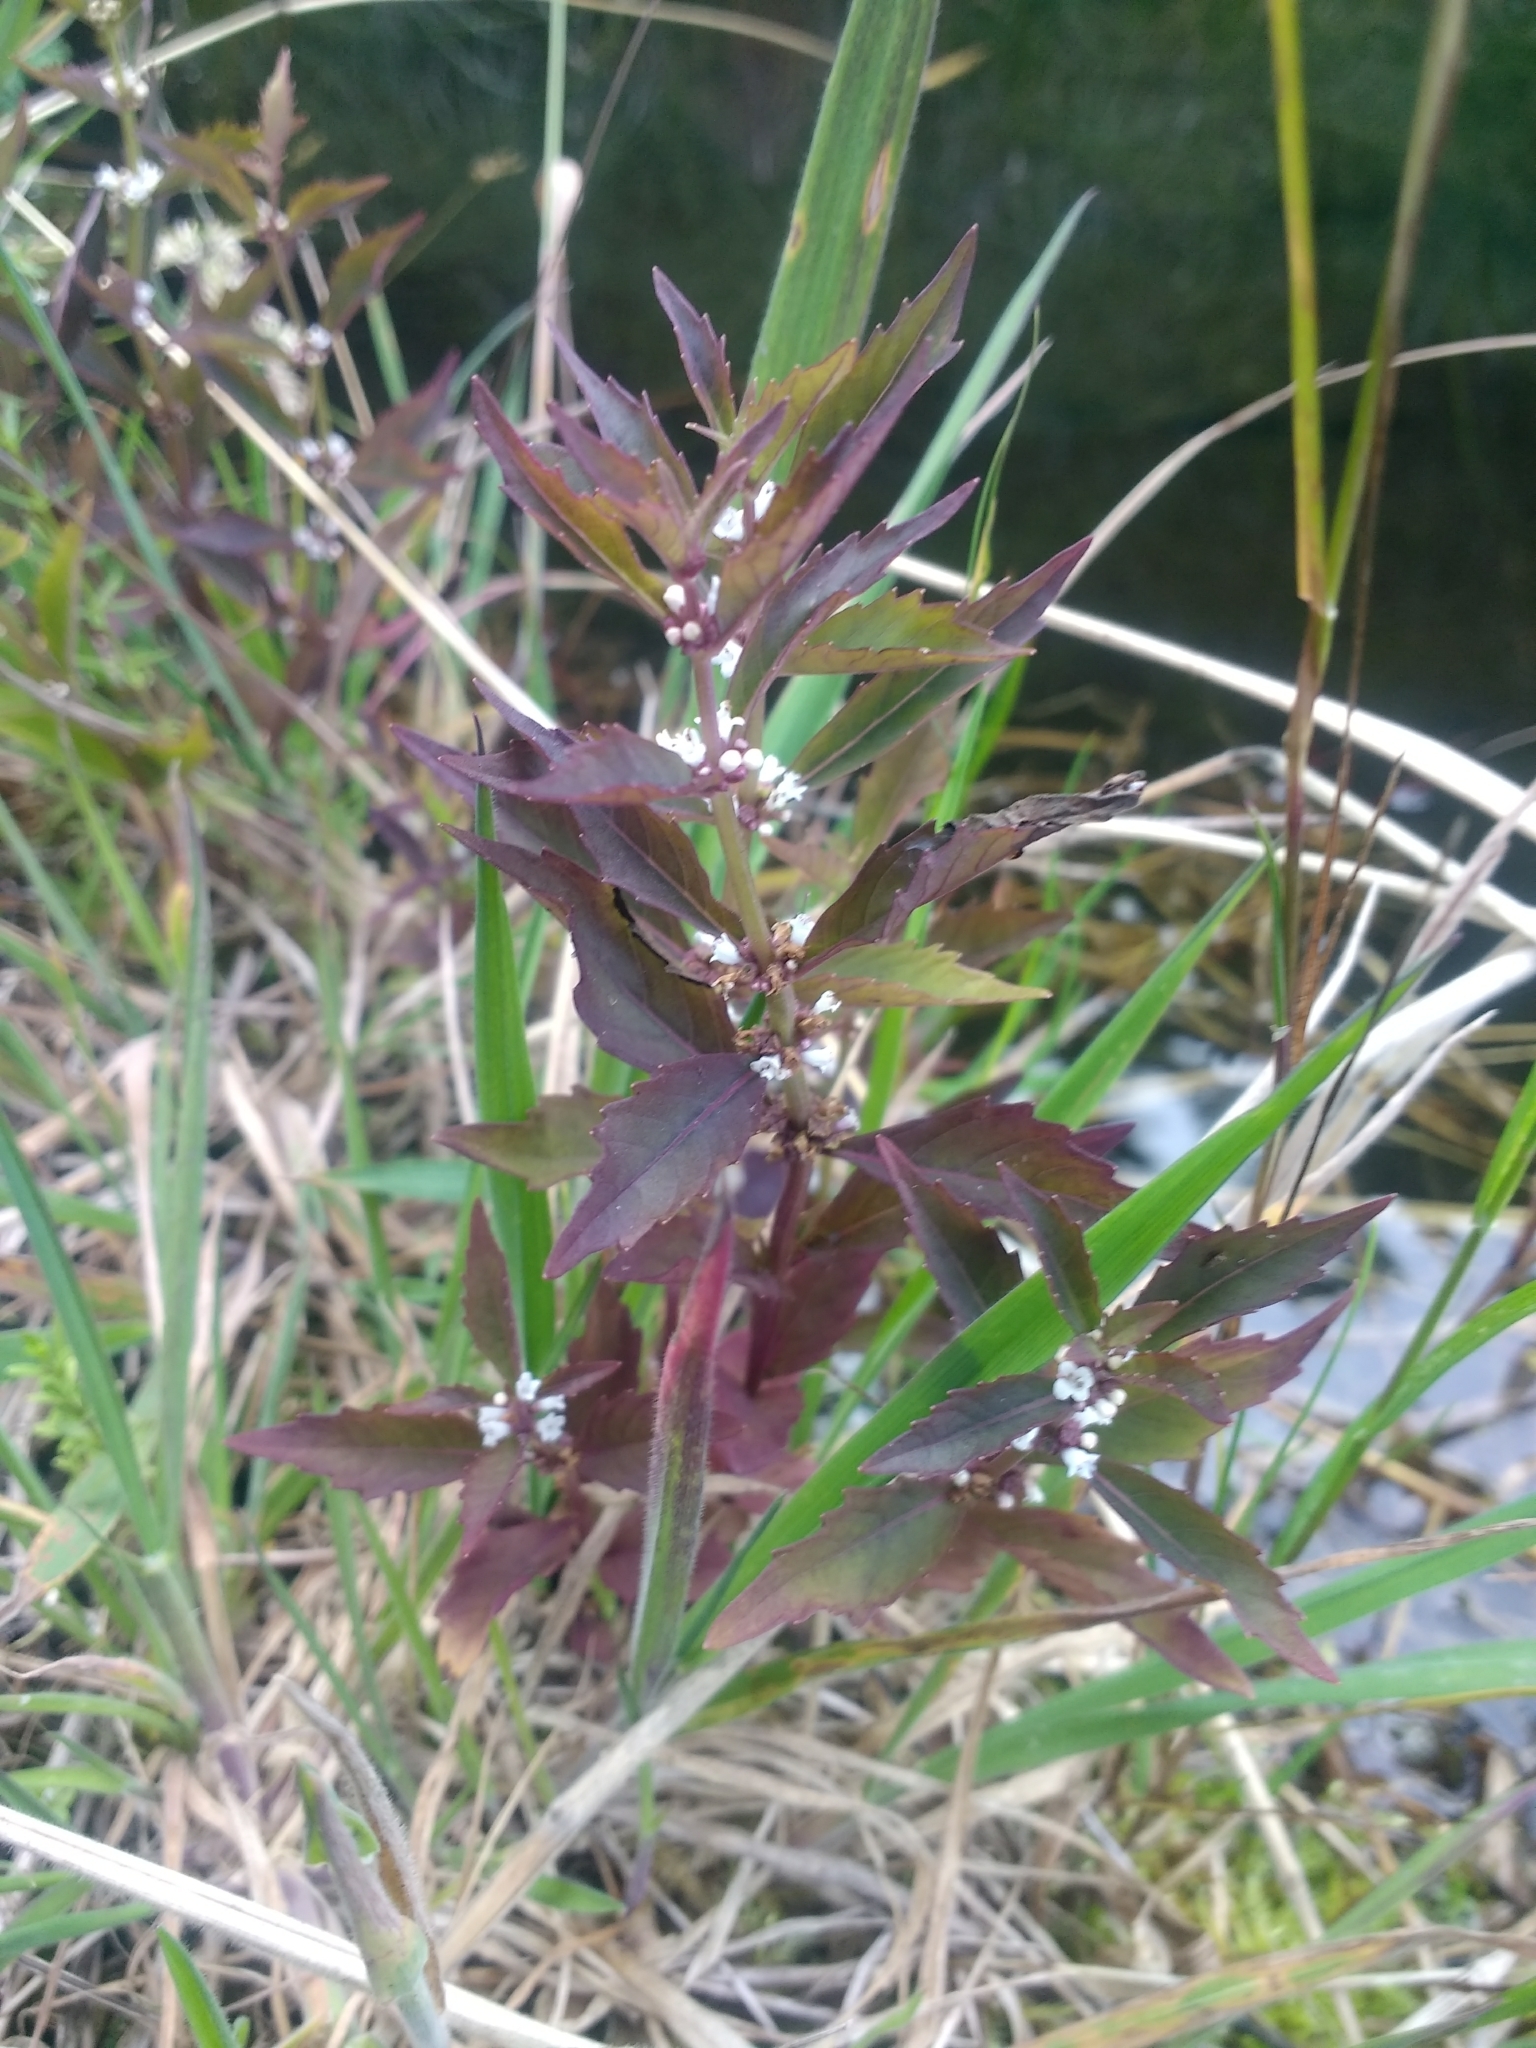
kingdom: Plantae
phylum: Tracheophyta
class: Magnoliopsida
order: Lamiales
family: Lamiaceae
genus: Lycopus
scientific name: Lycopus uniflorus
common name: Northern bugleweed
